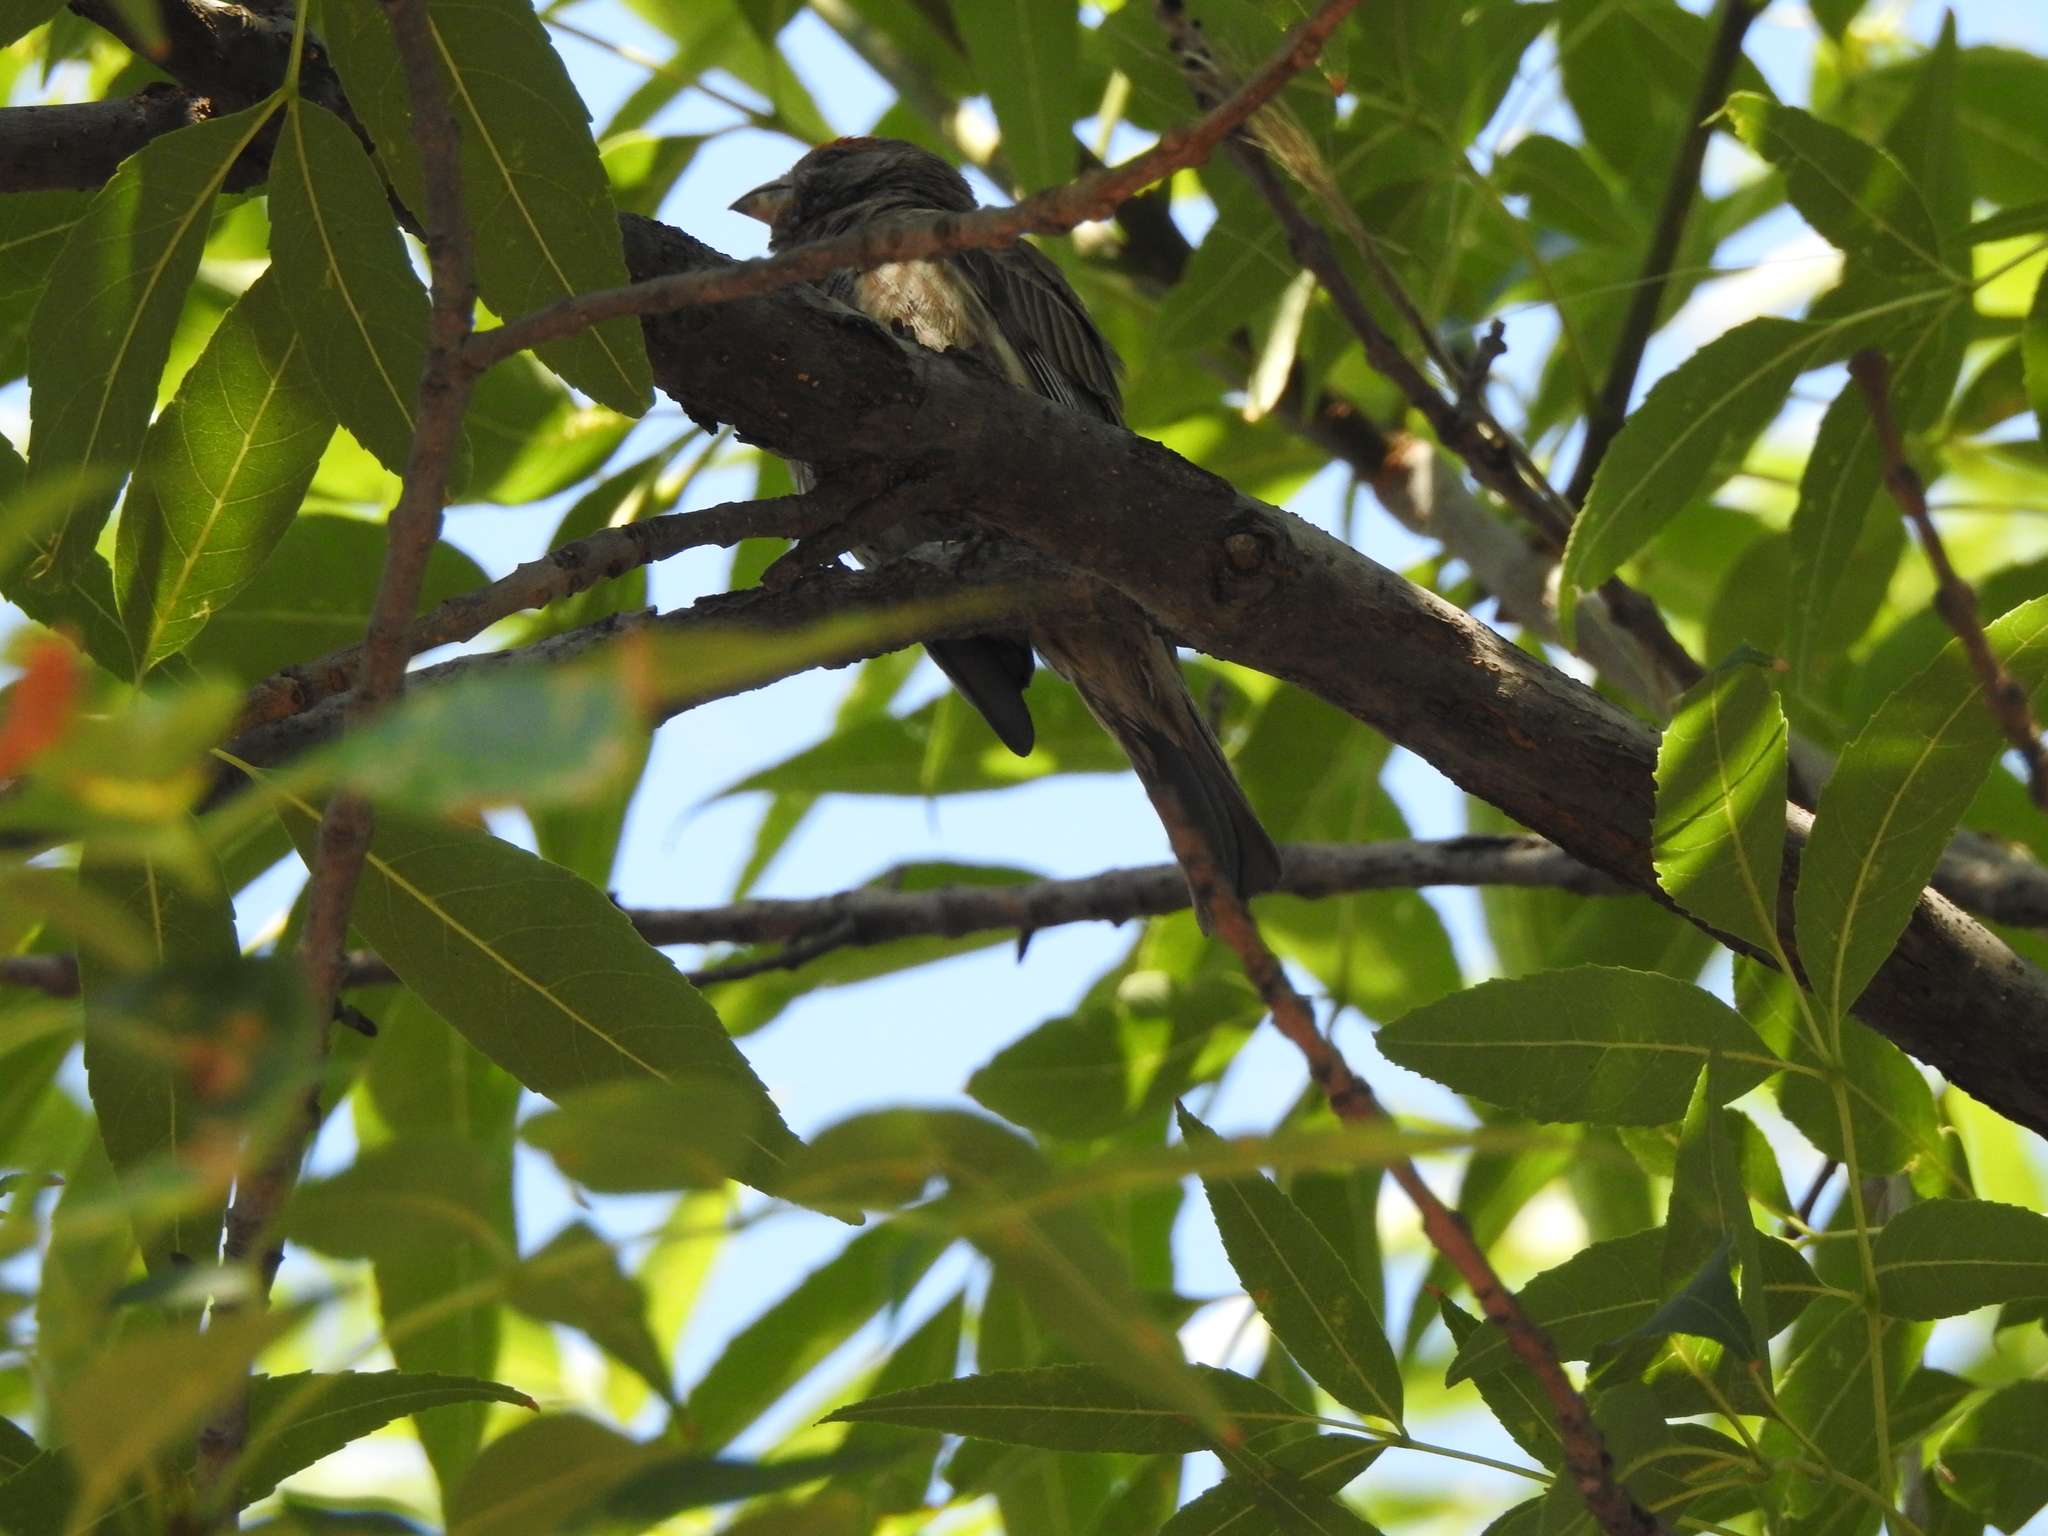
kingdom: Animalia
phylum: Chordata
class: Aves
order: Passeriformes
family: Fringillidae
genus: Haemorhous
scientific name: Haemorhous mexicanus
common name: House finch
